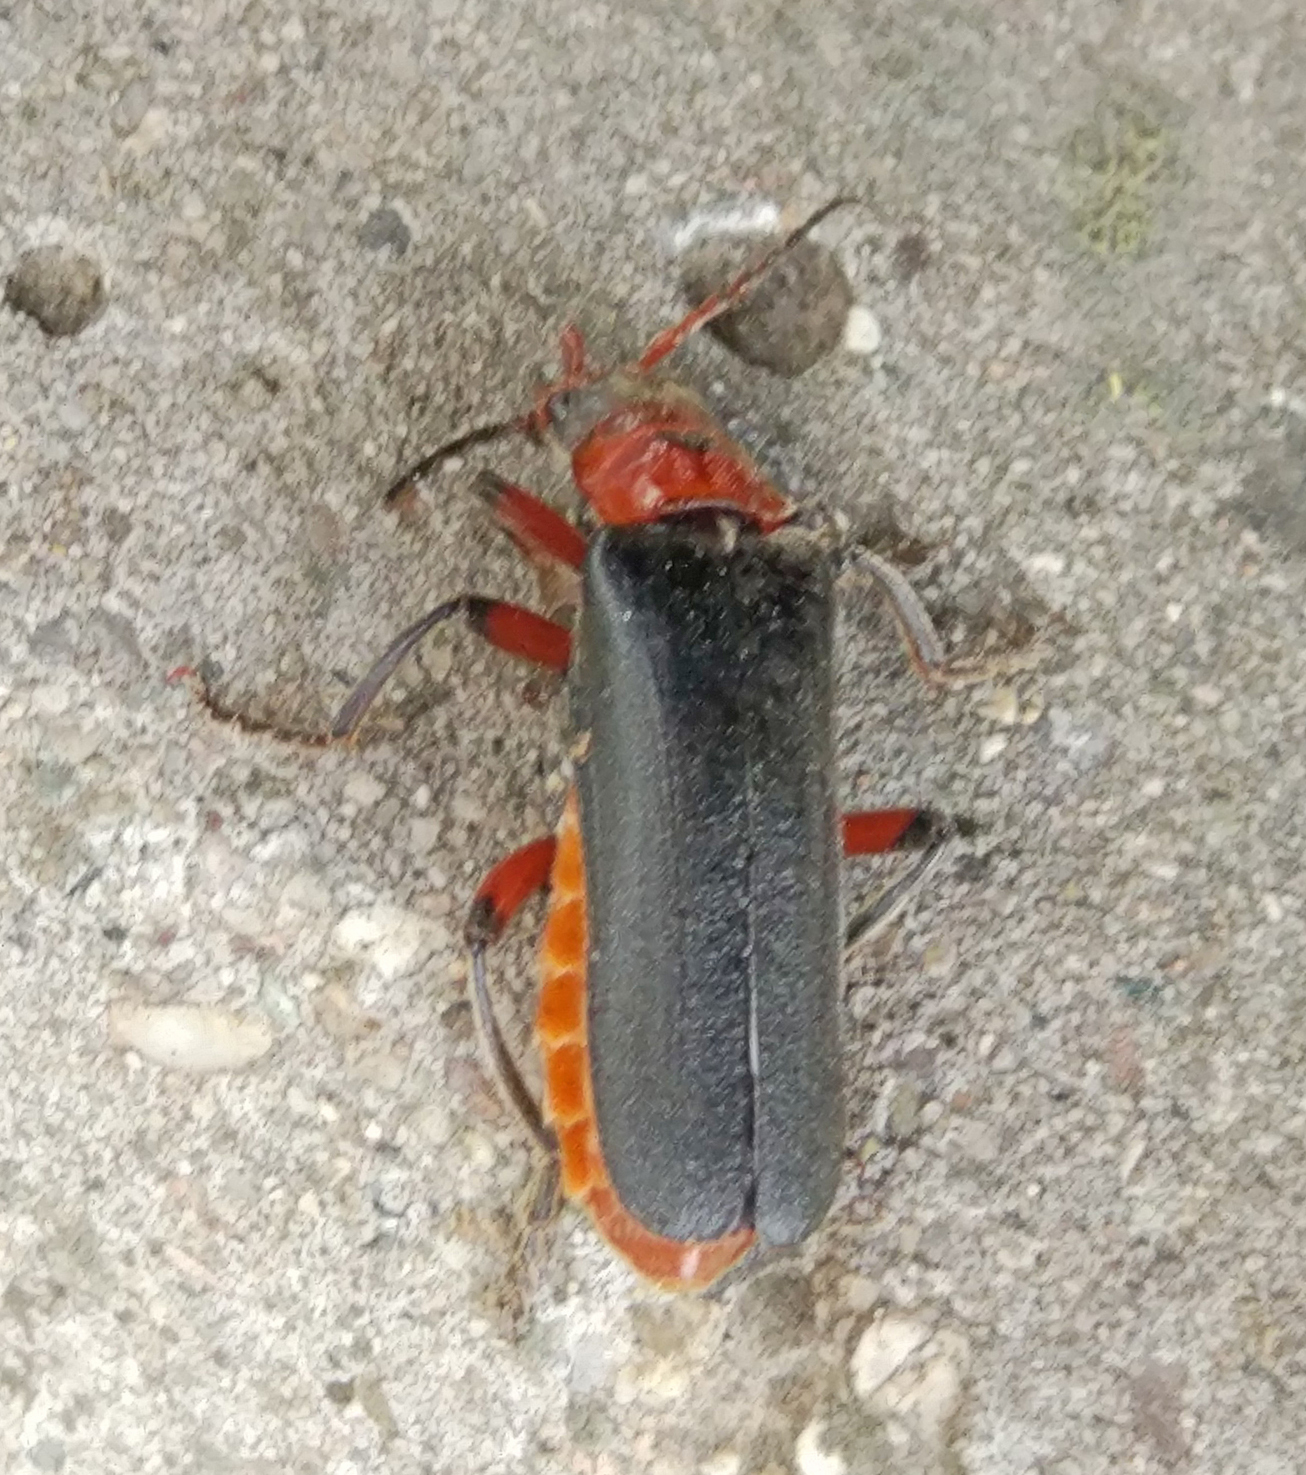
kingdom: Animalia
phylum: Arthropoda
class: Insecta
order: Coleoptera
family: Cantharidae
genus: Cantharis
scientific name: Cantharis rustica
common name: Soldier beetle
